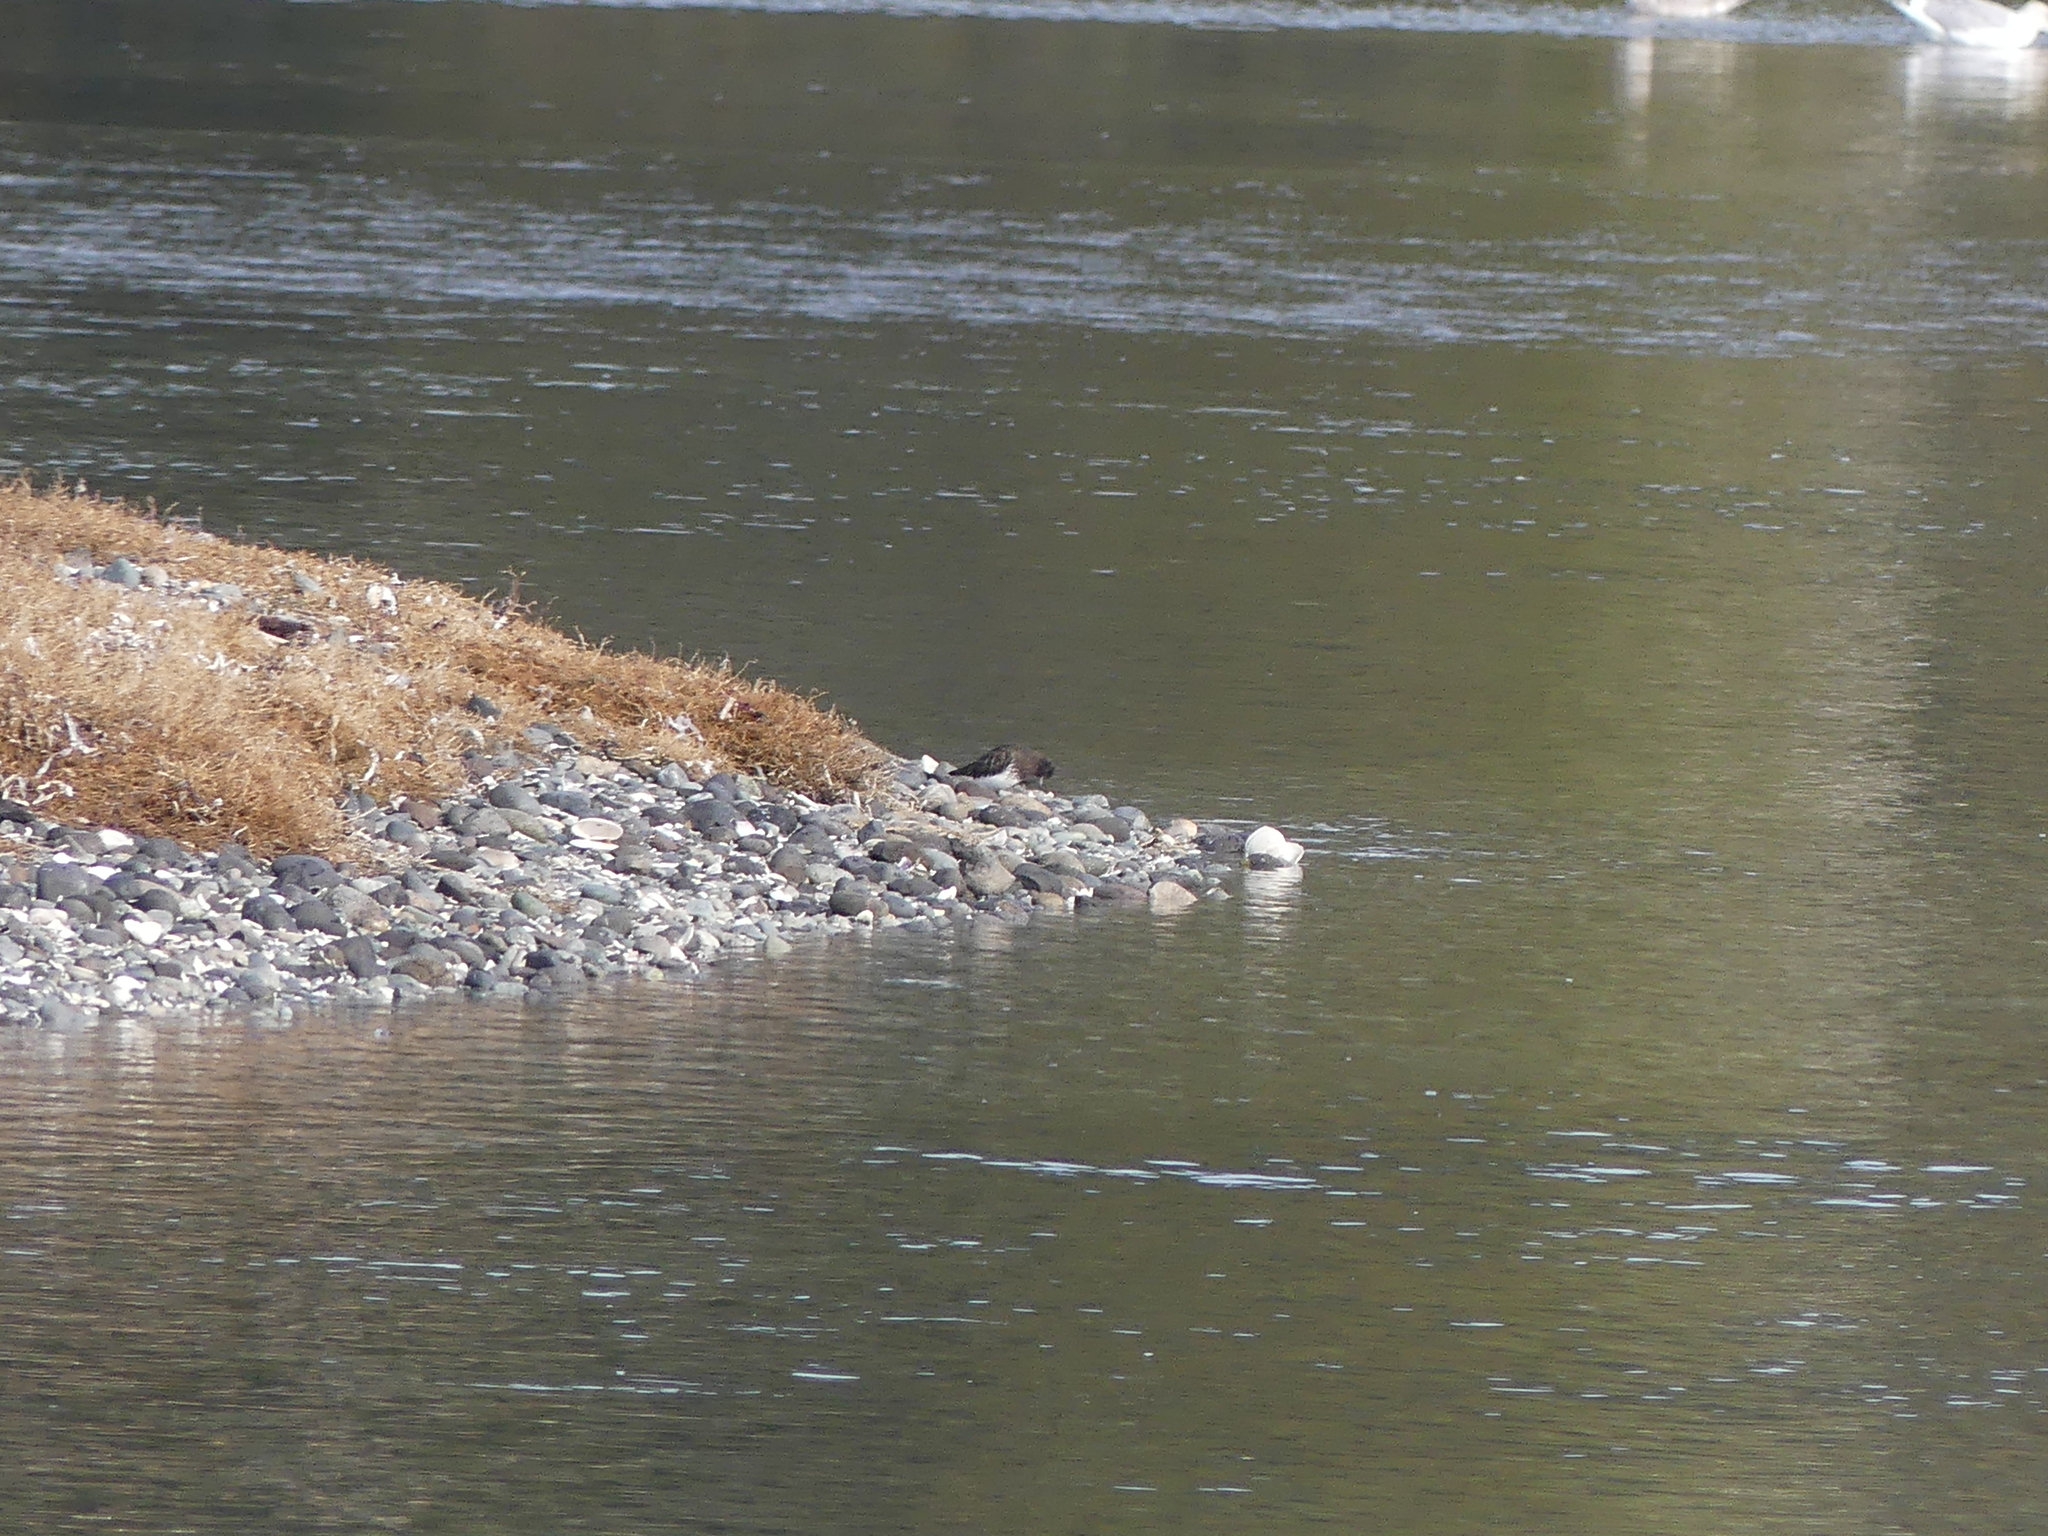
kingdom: Animalia
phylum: Chordata
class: Aves
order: Charadriiformes
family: Scolopacidae
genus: Arenaria
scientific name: Arenaria melanocephala
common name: Black turnstone
